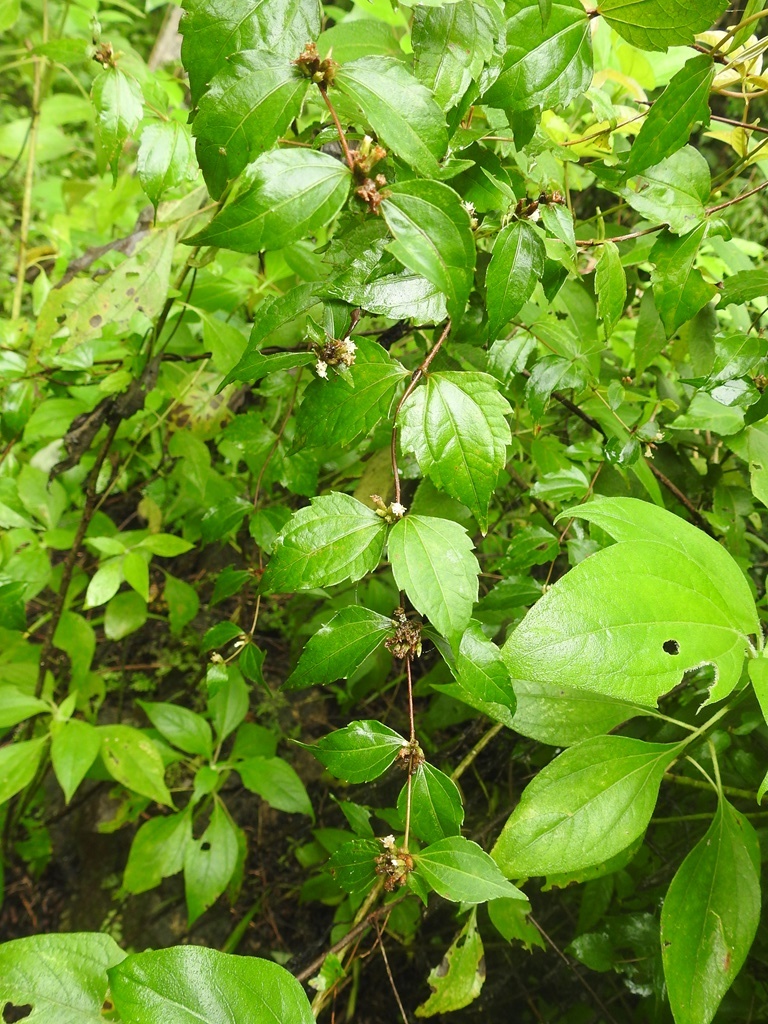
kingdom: Plantae
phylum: Tracheophyta
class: Magnoliopsida
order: Asterales
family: Asteraceae
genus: Calea
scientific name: Calea ternifolia
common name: Mexican calea
